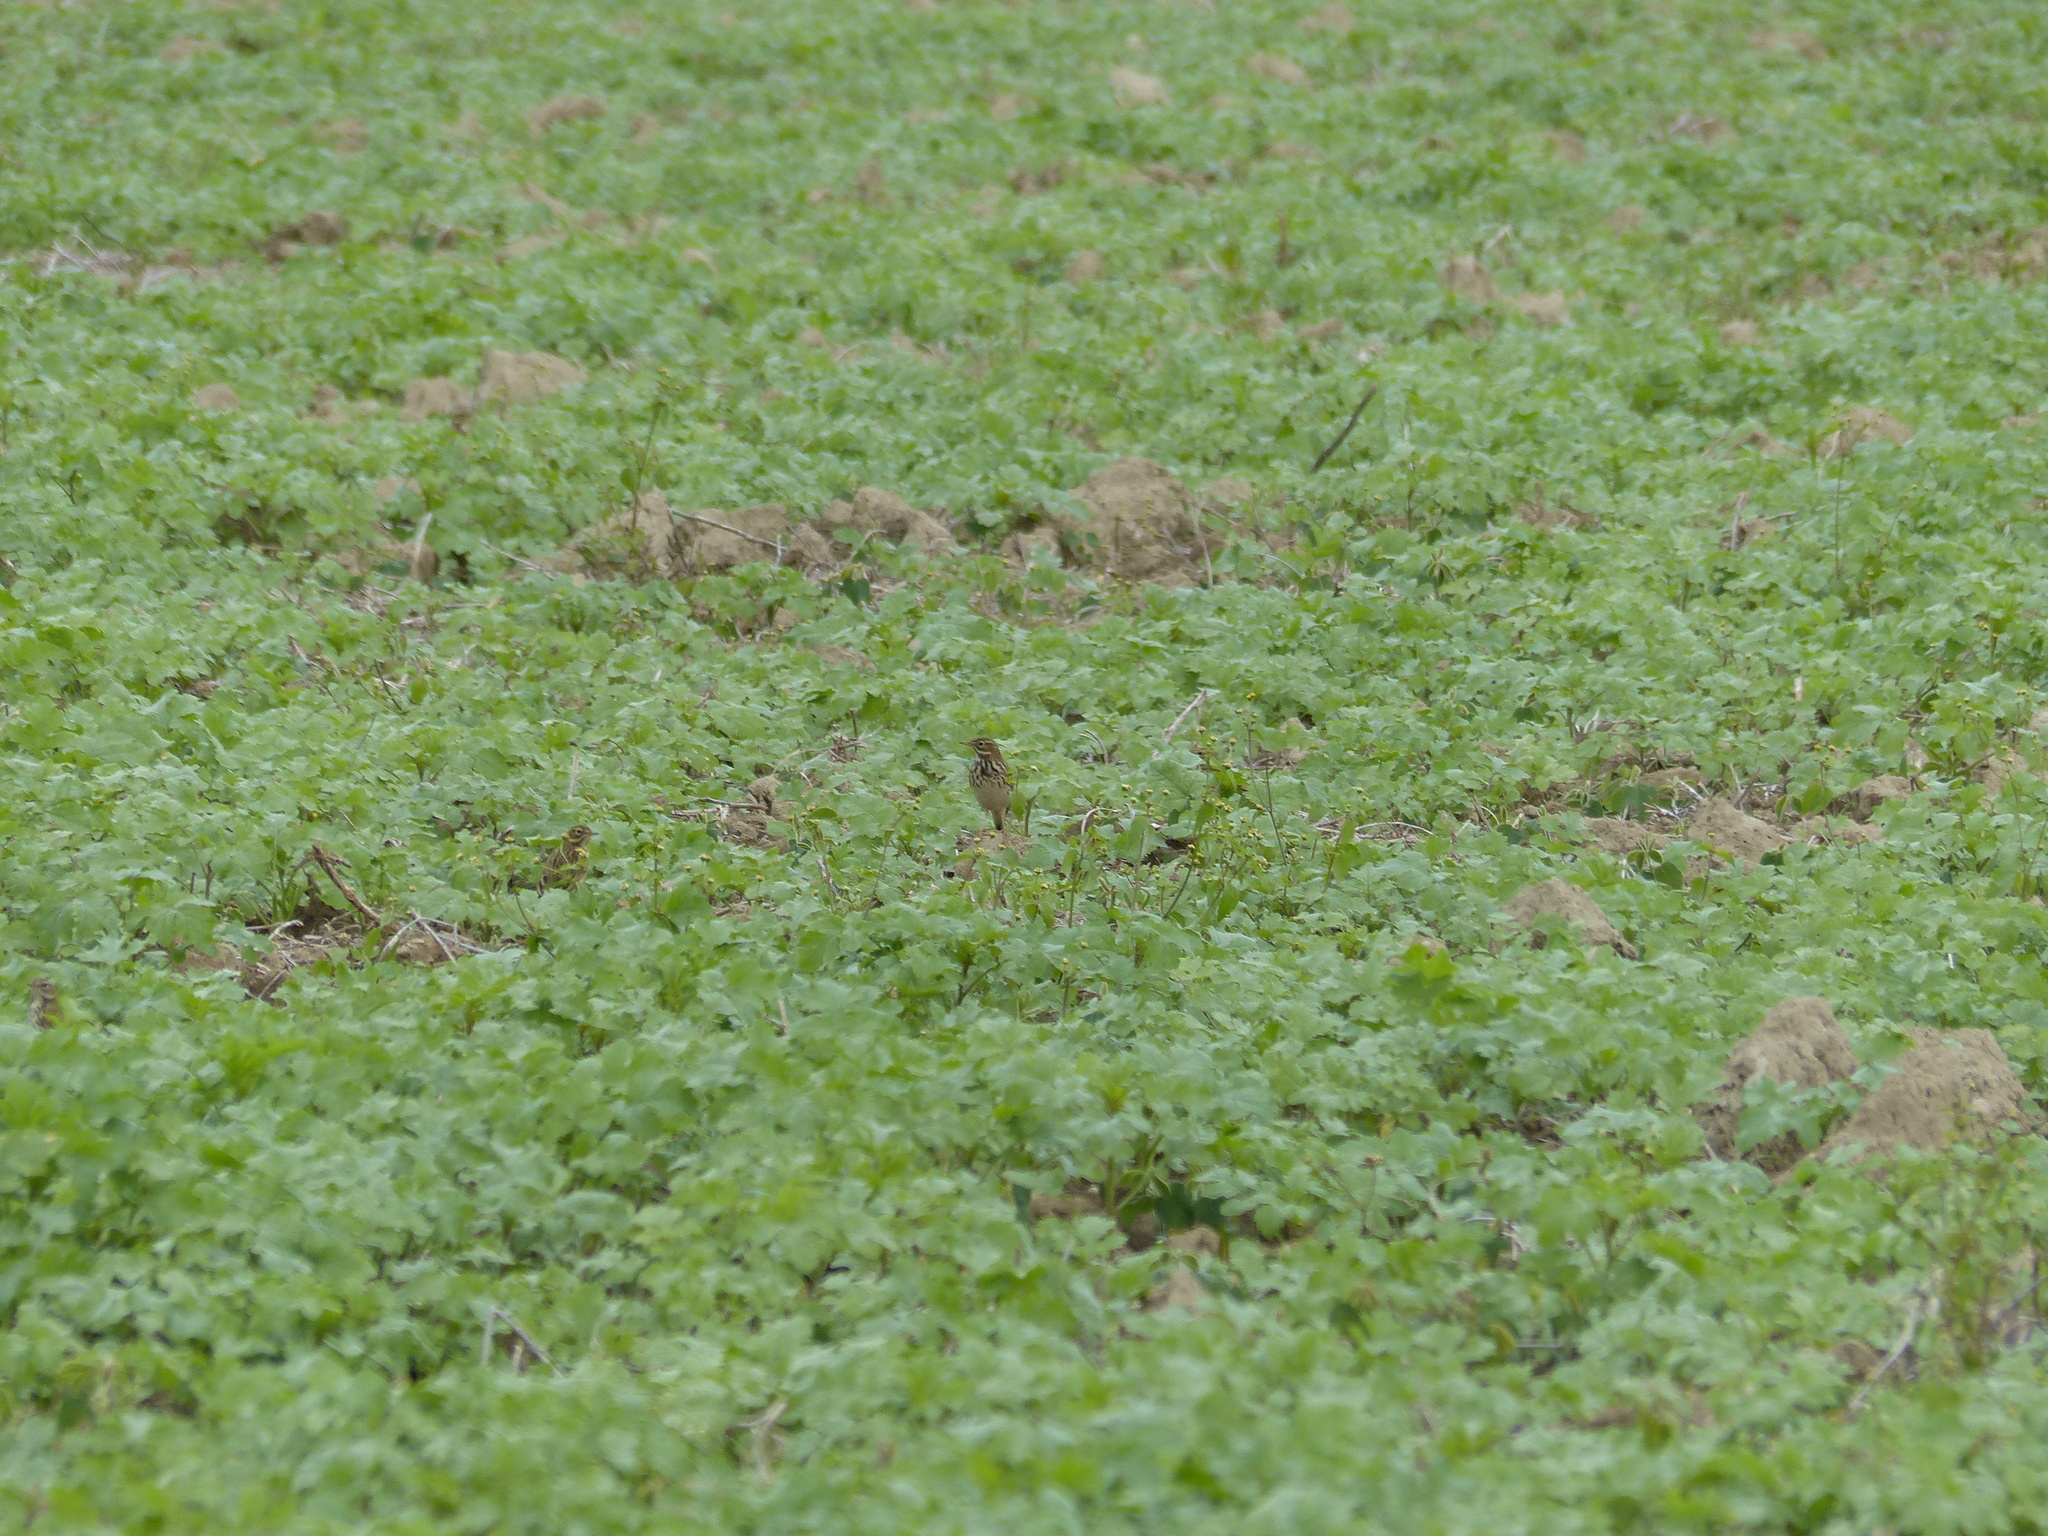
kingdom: Animalia
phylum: Chordata
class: Aves
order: Passeriformes
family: Motacillidae
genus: Anthus
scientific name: Anthus spinoletta
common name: Water pipit
